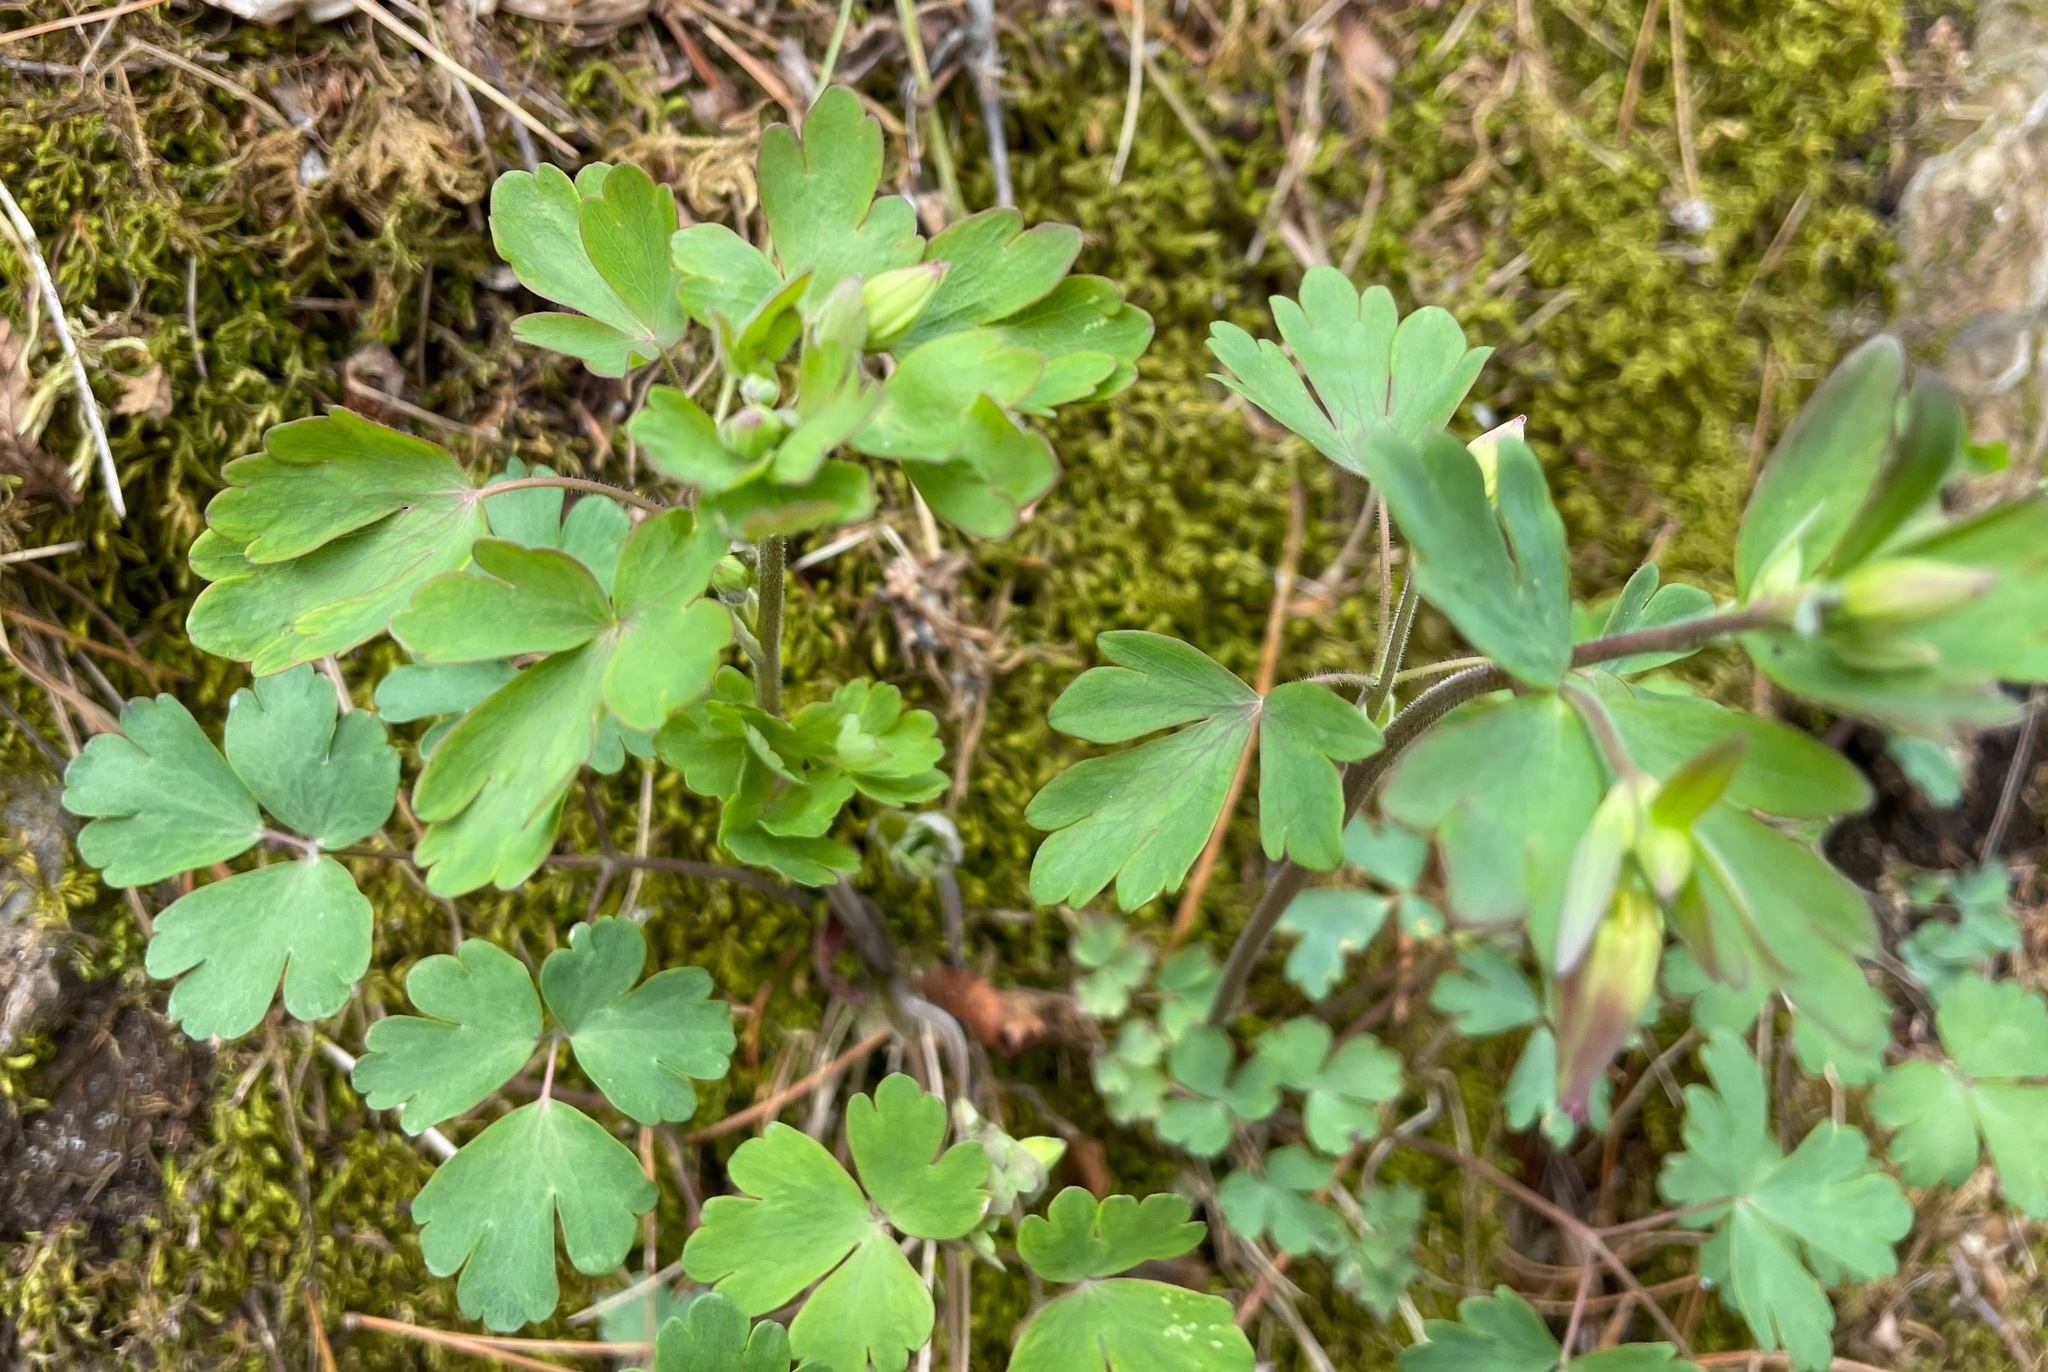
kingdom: Plantae
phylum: Tracheophyta
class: Magnoliopsida
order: Ranunculales
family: Ranunculaceae
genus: Aquilegia
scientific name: Aquilegia canadensis
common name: American columbine
